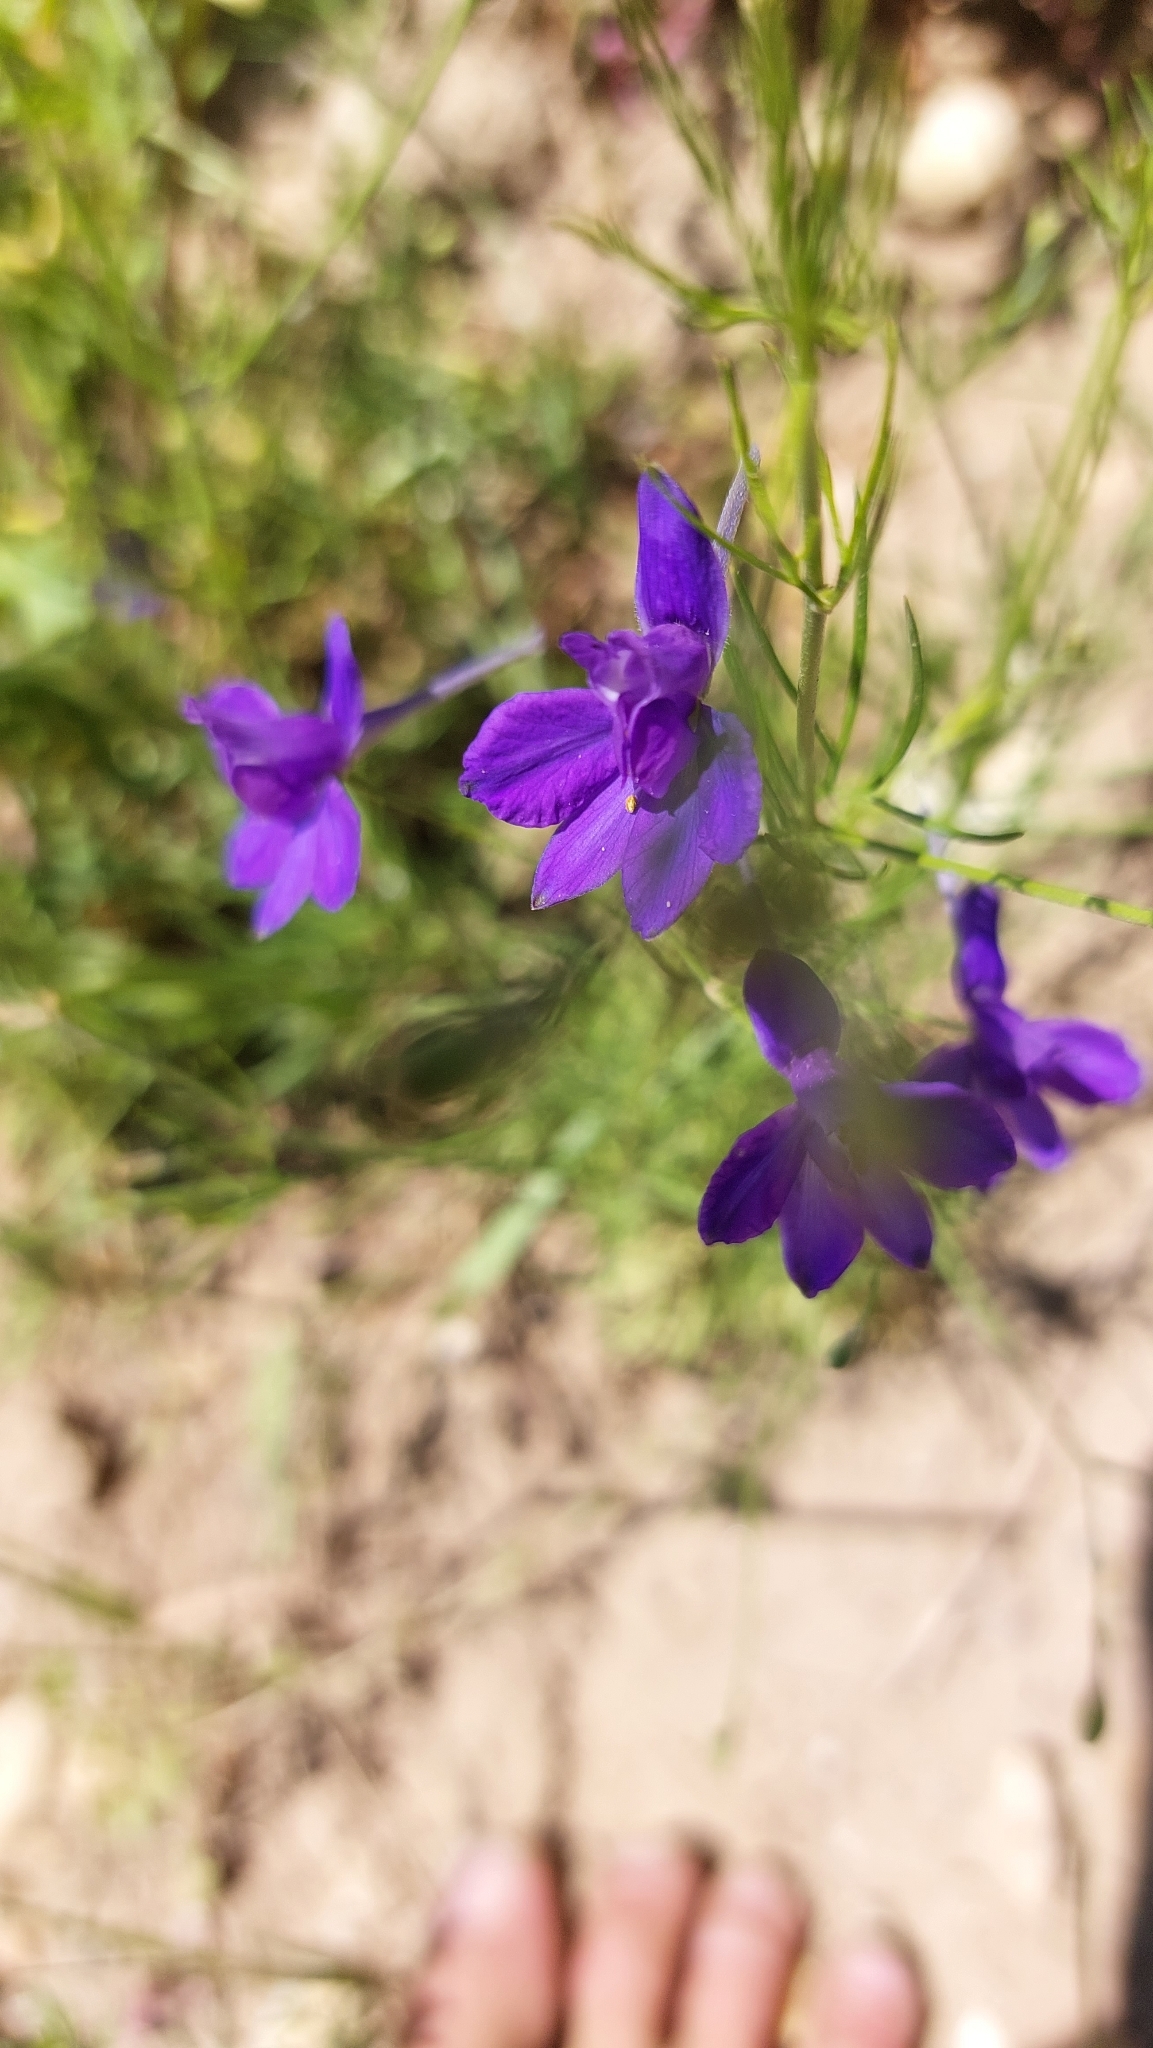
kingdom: Plantae
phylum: Tracheophyta
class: Magnoliopsida
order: Ranunculales
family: Ranunculaceae
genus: Delphinium
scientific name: Delphinium consolida
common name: Branching larkspur
